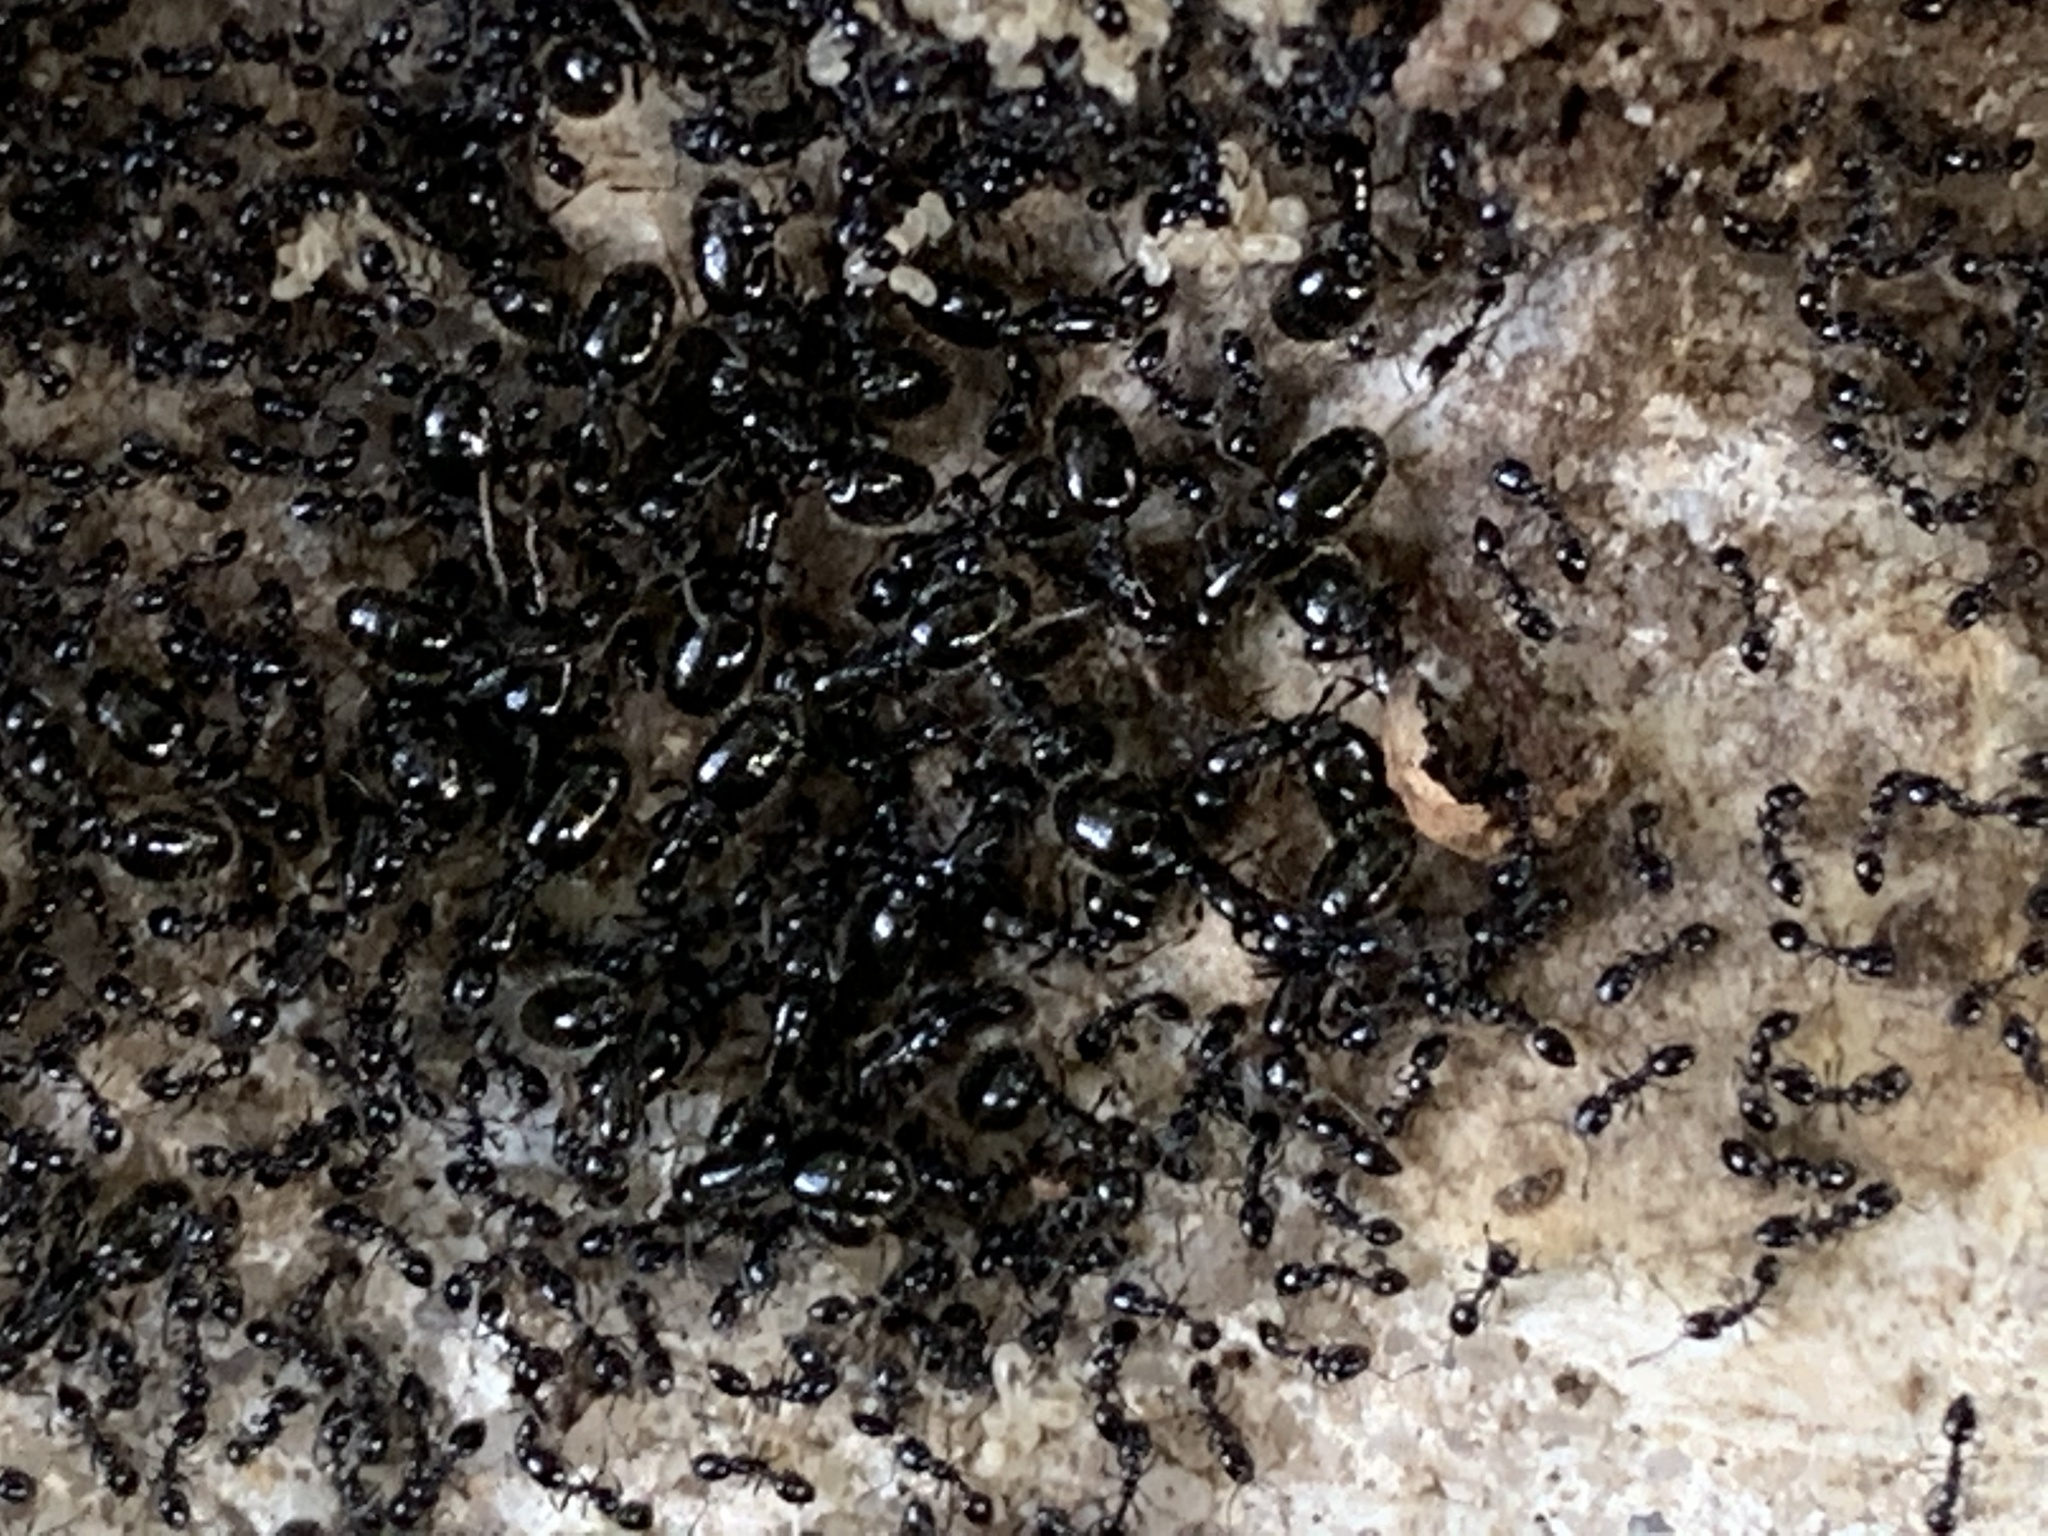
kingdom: Animalia
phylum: Arthropoda
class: Insecta
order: Hymenoptera
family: Formicidae
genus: Monomorium
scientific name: Monomorium minimum
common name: Little black ant
